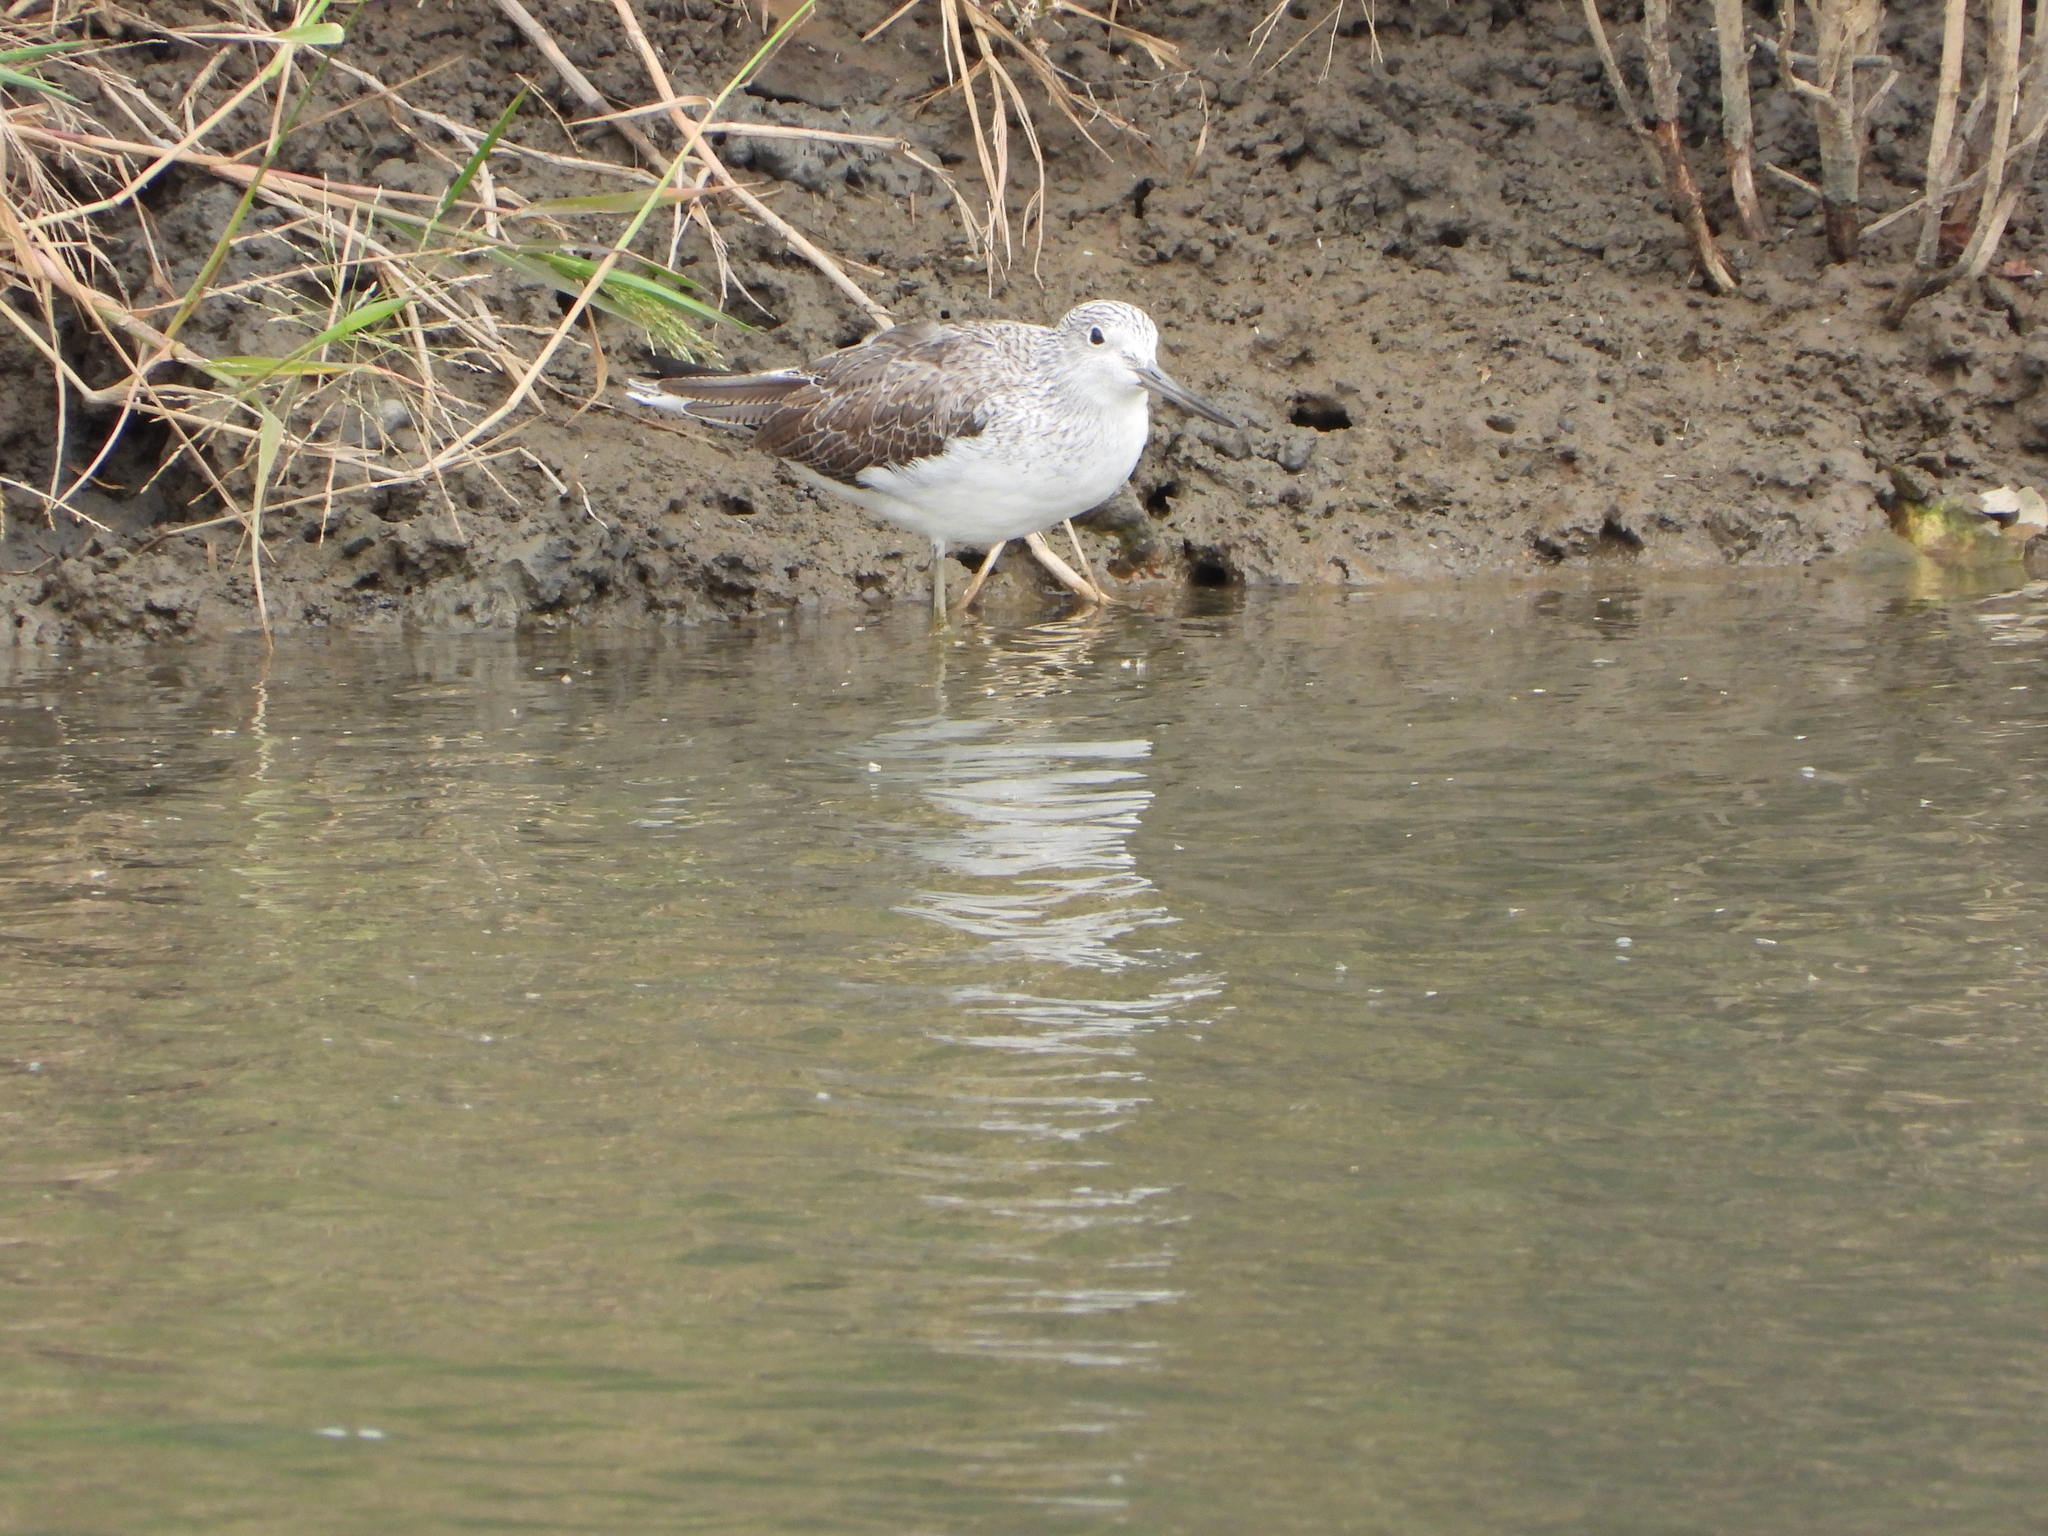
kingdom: Animalia
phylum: Chordata
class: Aves
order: Charadriiformes
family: Scolopacidae
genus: Tringa
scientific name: Tringa nebularia
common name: Common greenshank
